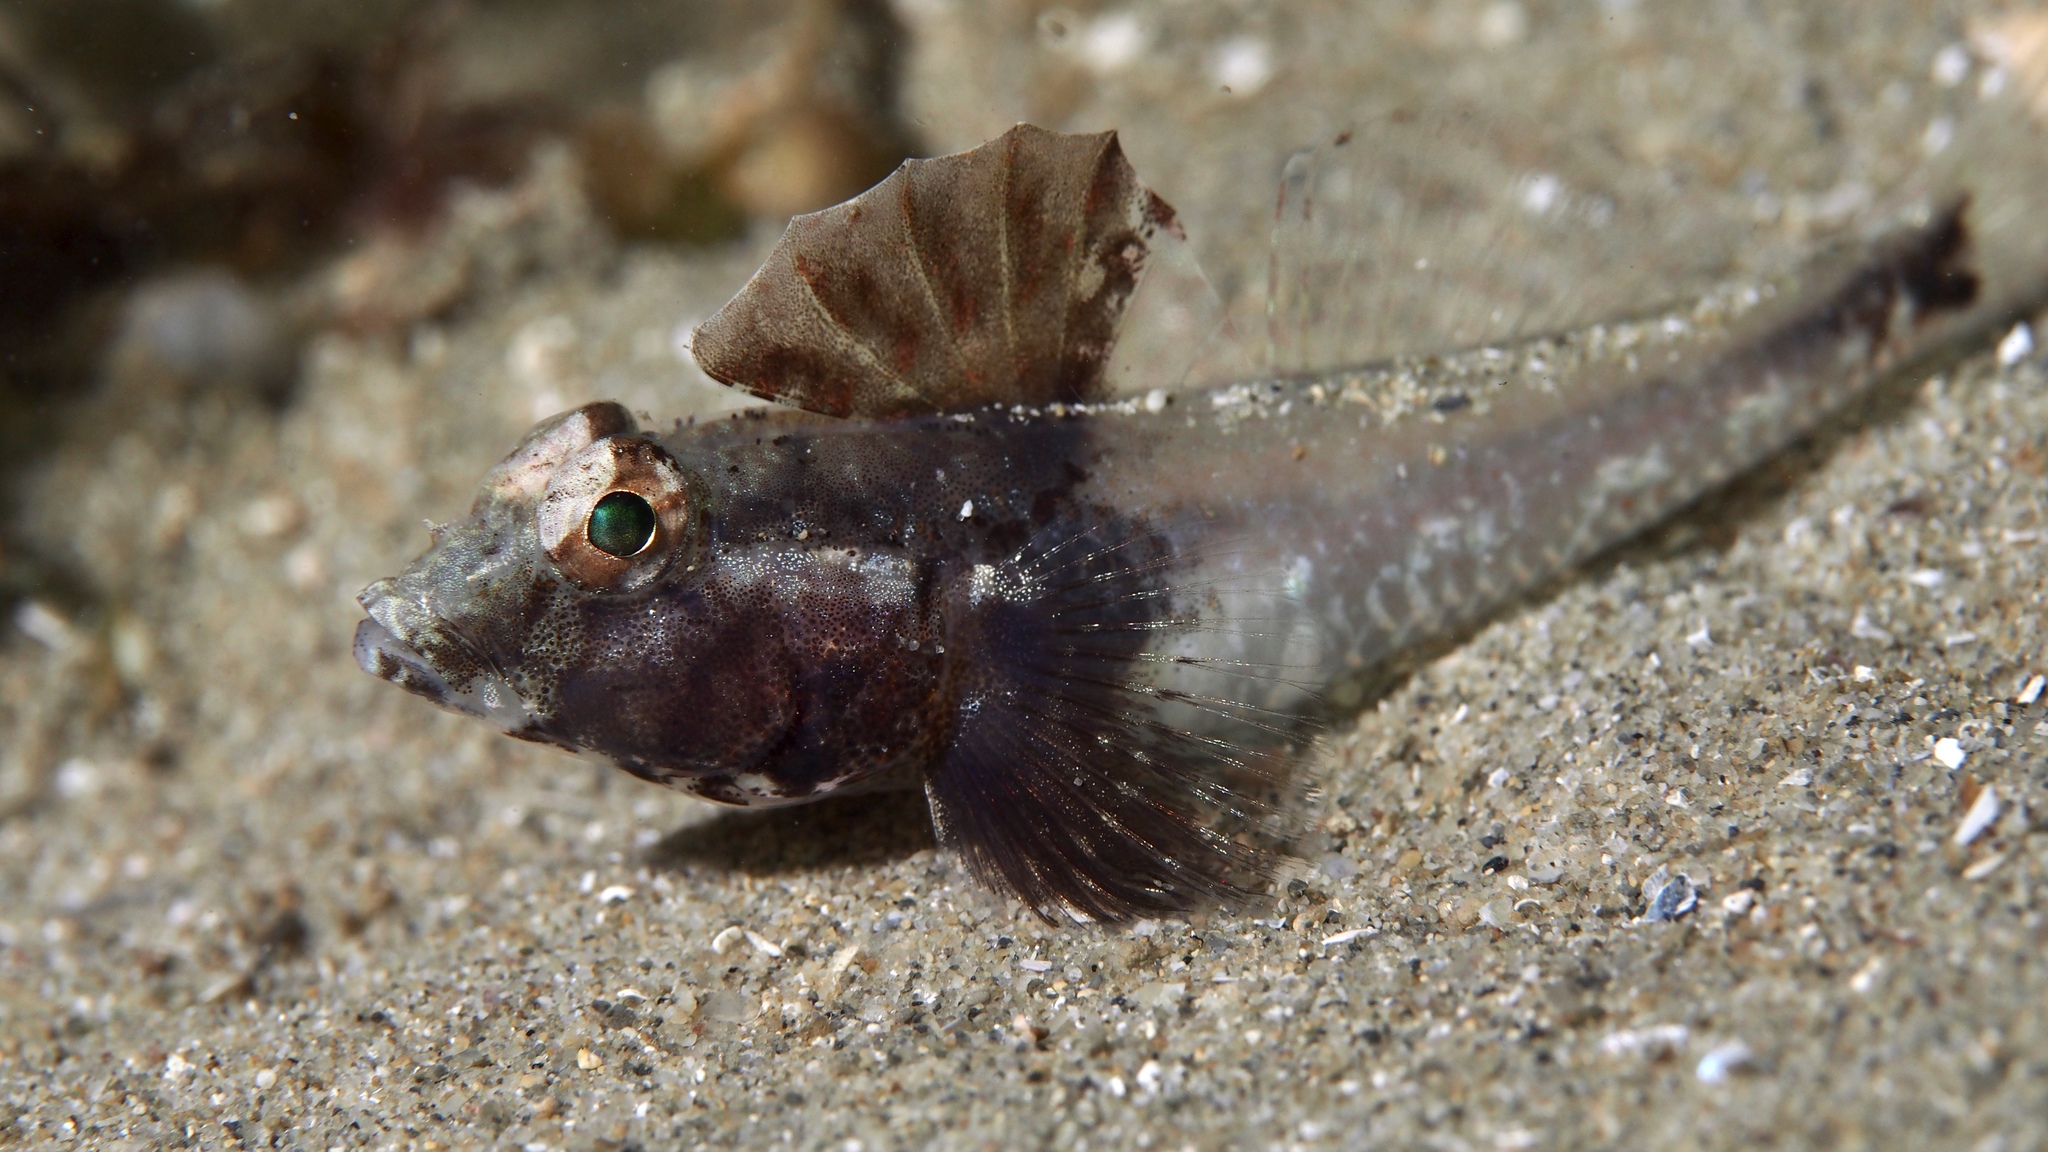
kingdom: Animalia
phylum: Chordata
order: Perciformes
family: Gobiidae
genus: Nesogobius
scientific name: Nesogobius pulchellus
